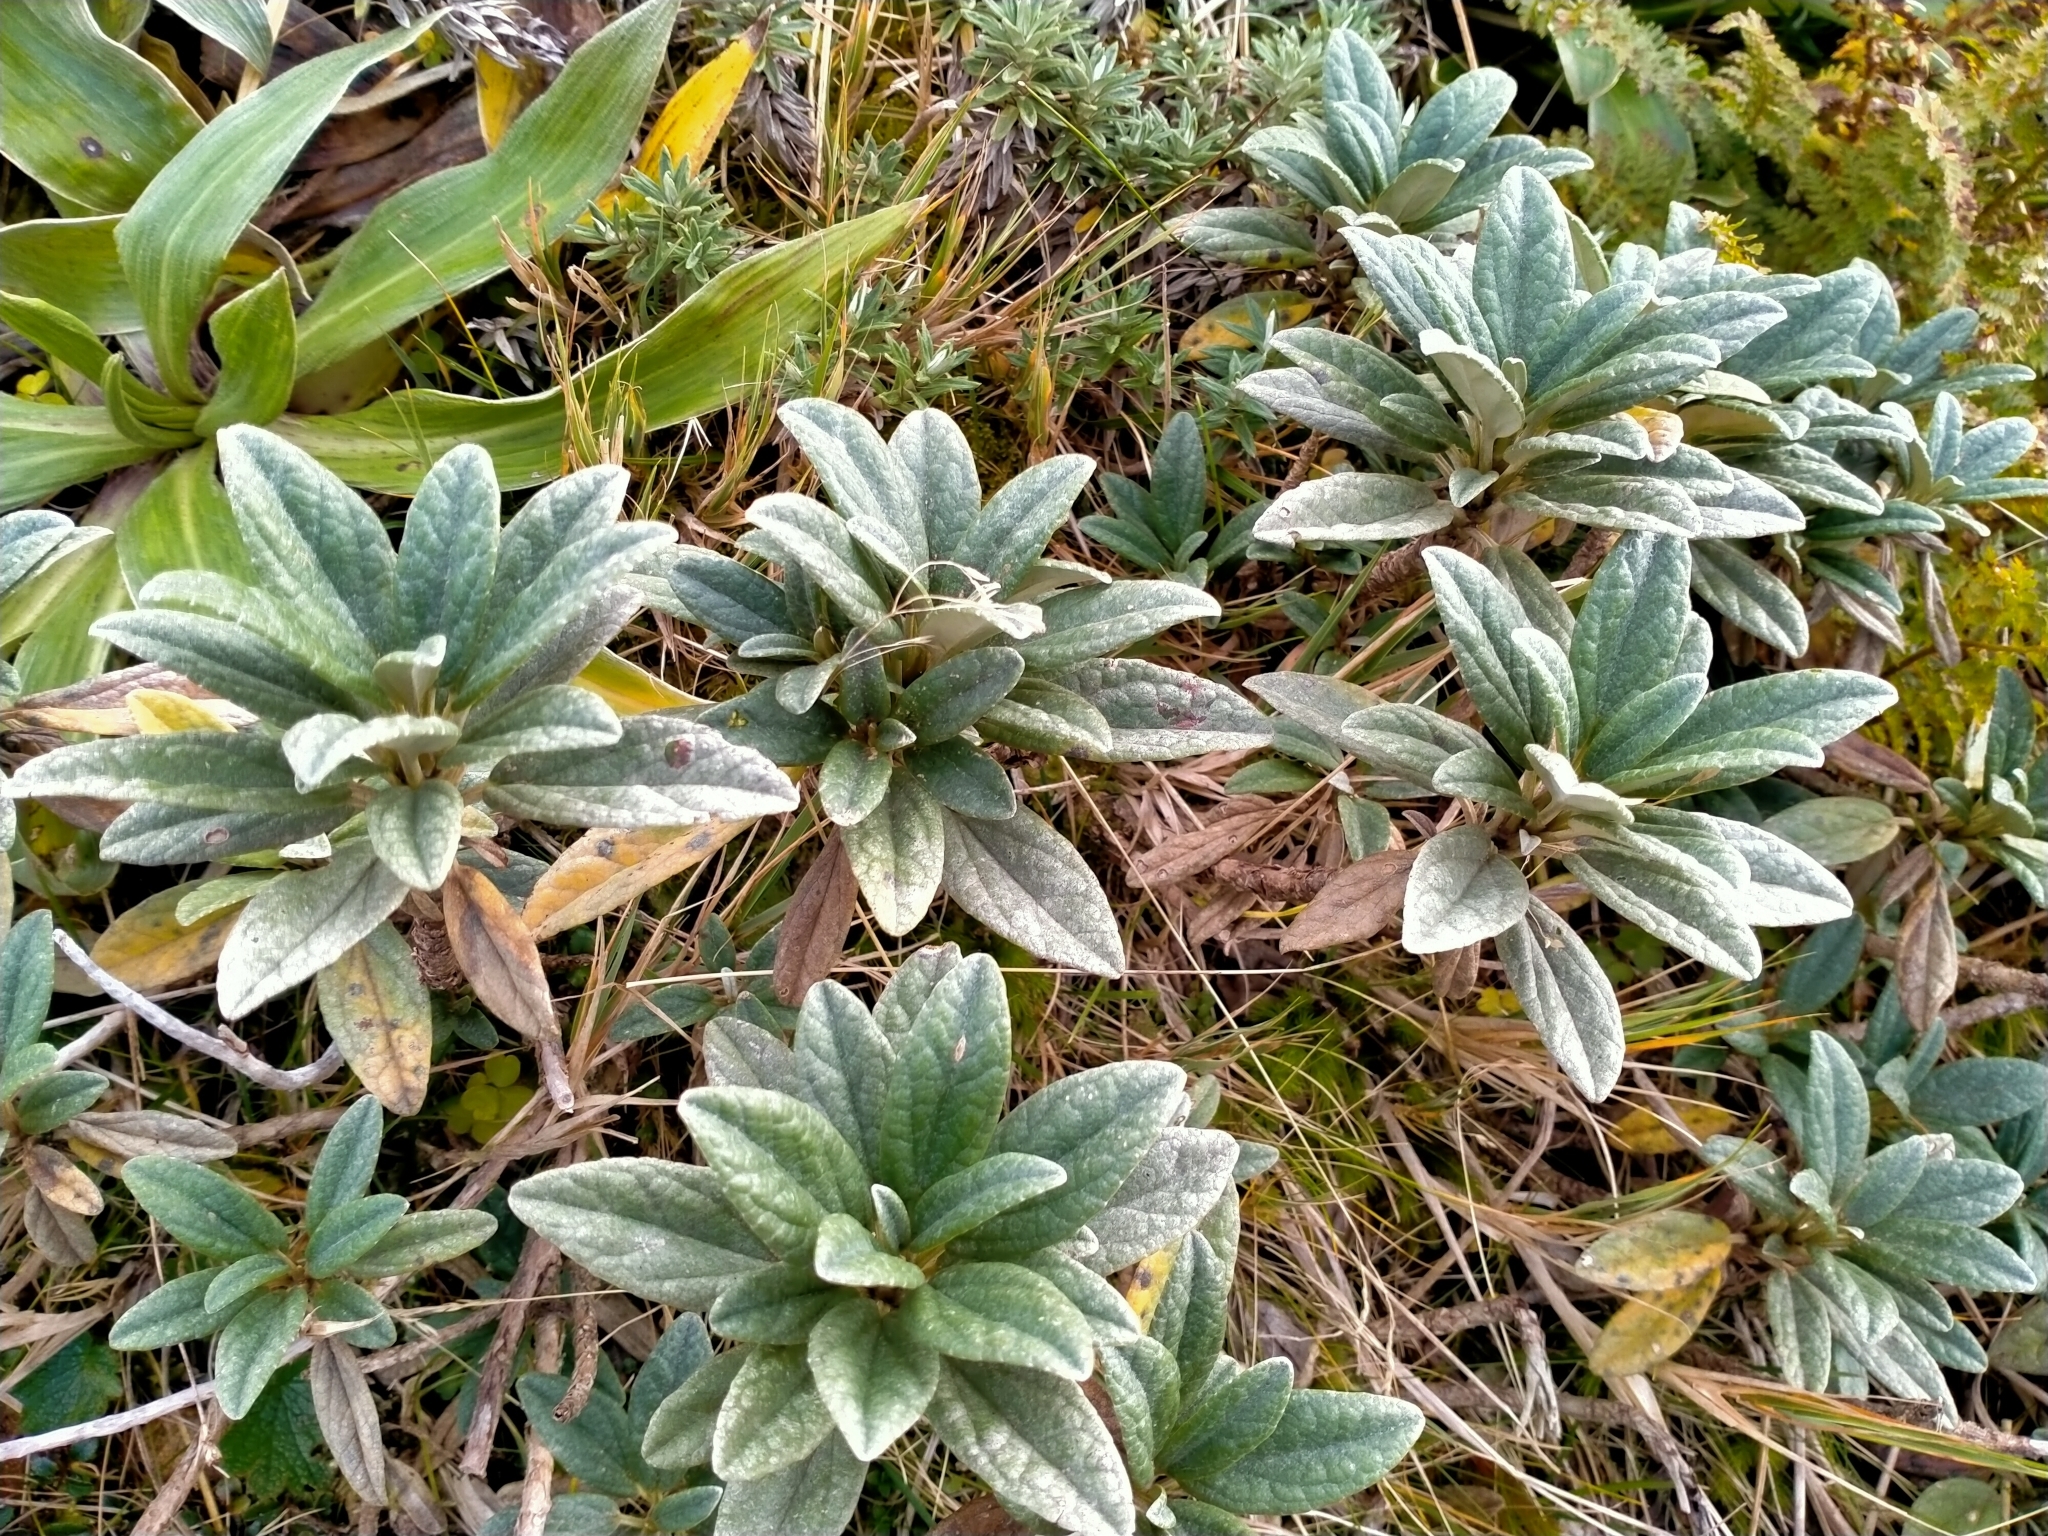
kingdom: Plantae
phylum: Tracheophyta
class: Magnoliopsida
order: Asterales
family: Asteraceae
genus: Brachyglottis
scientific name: Brachyglottis revoluta
